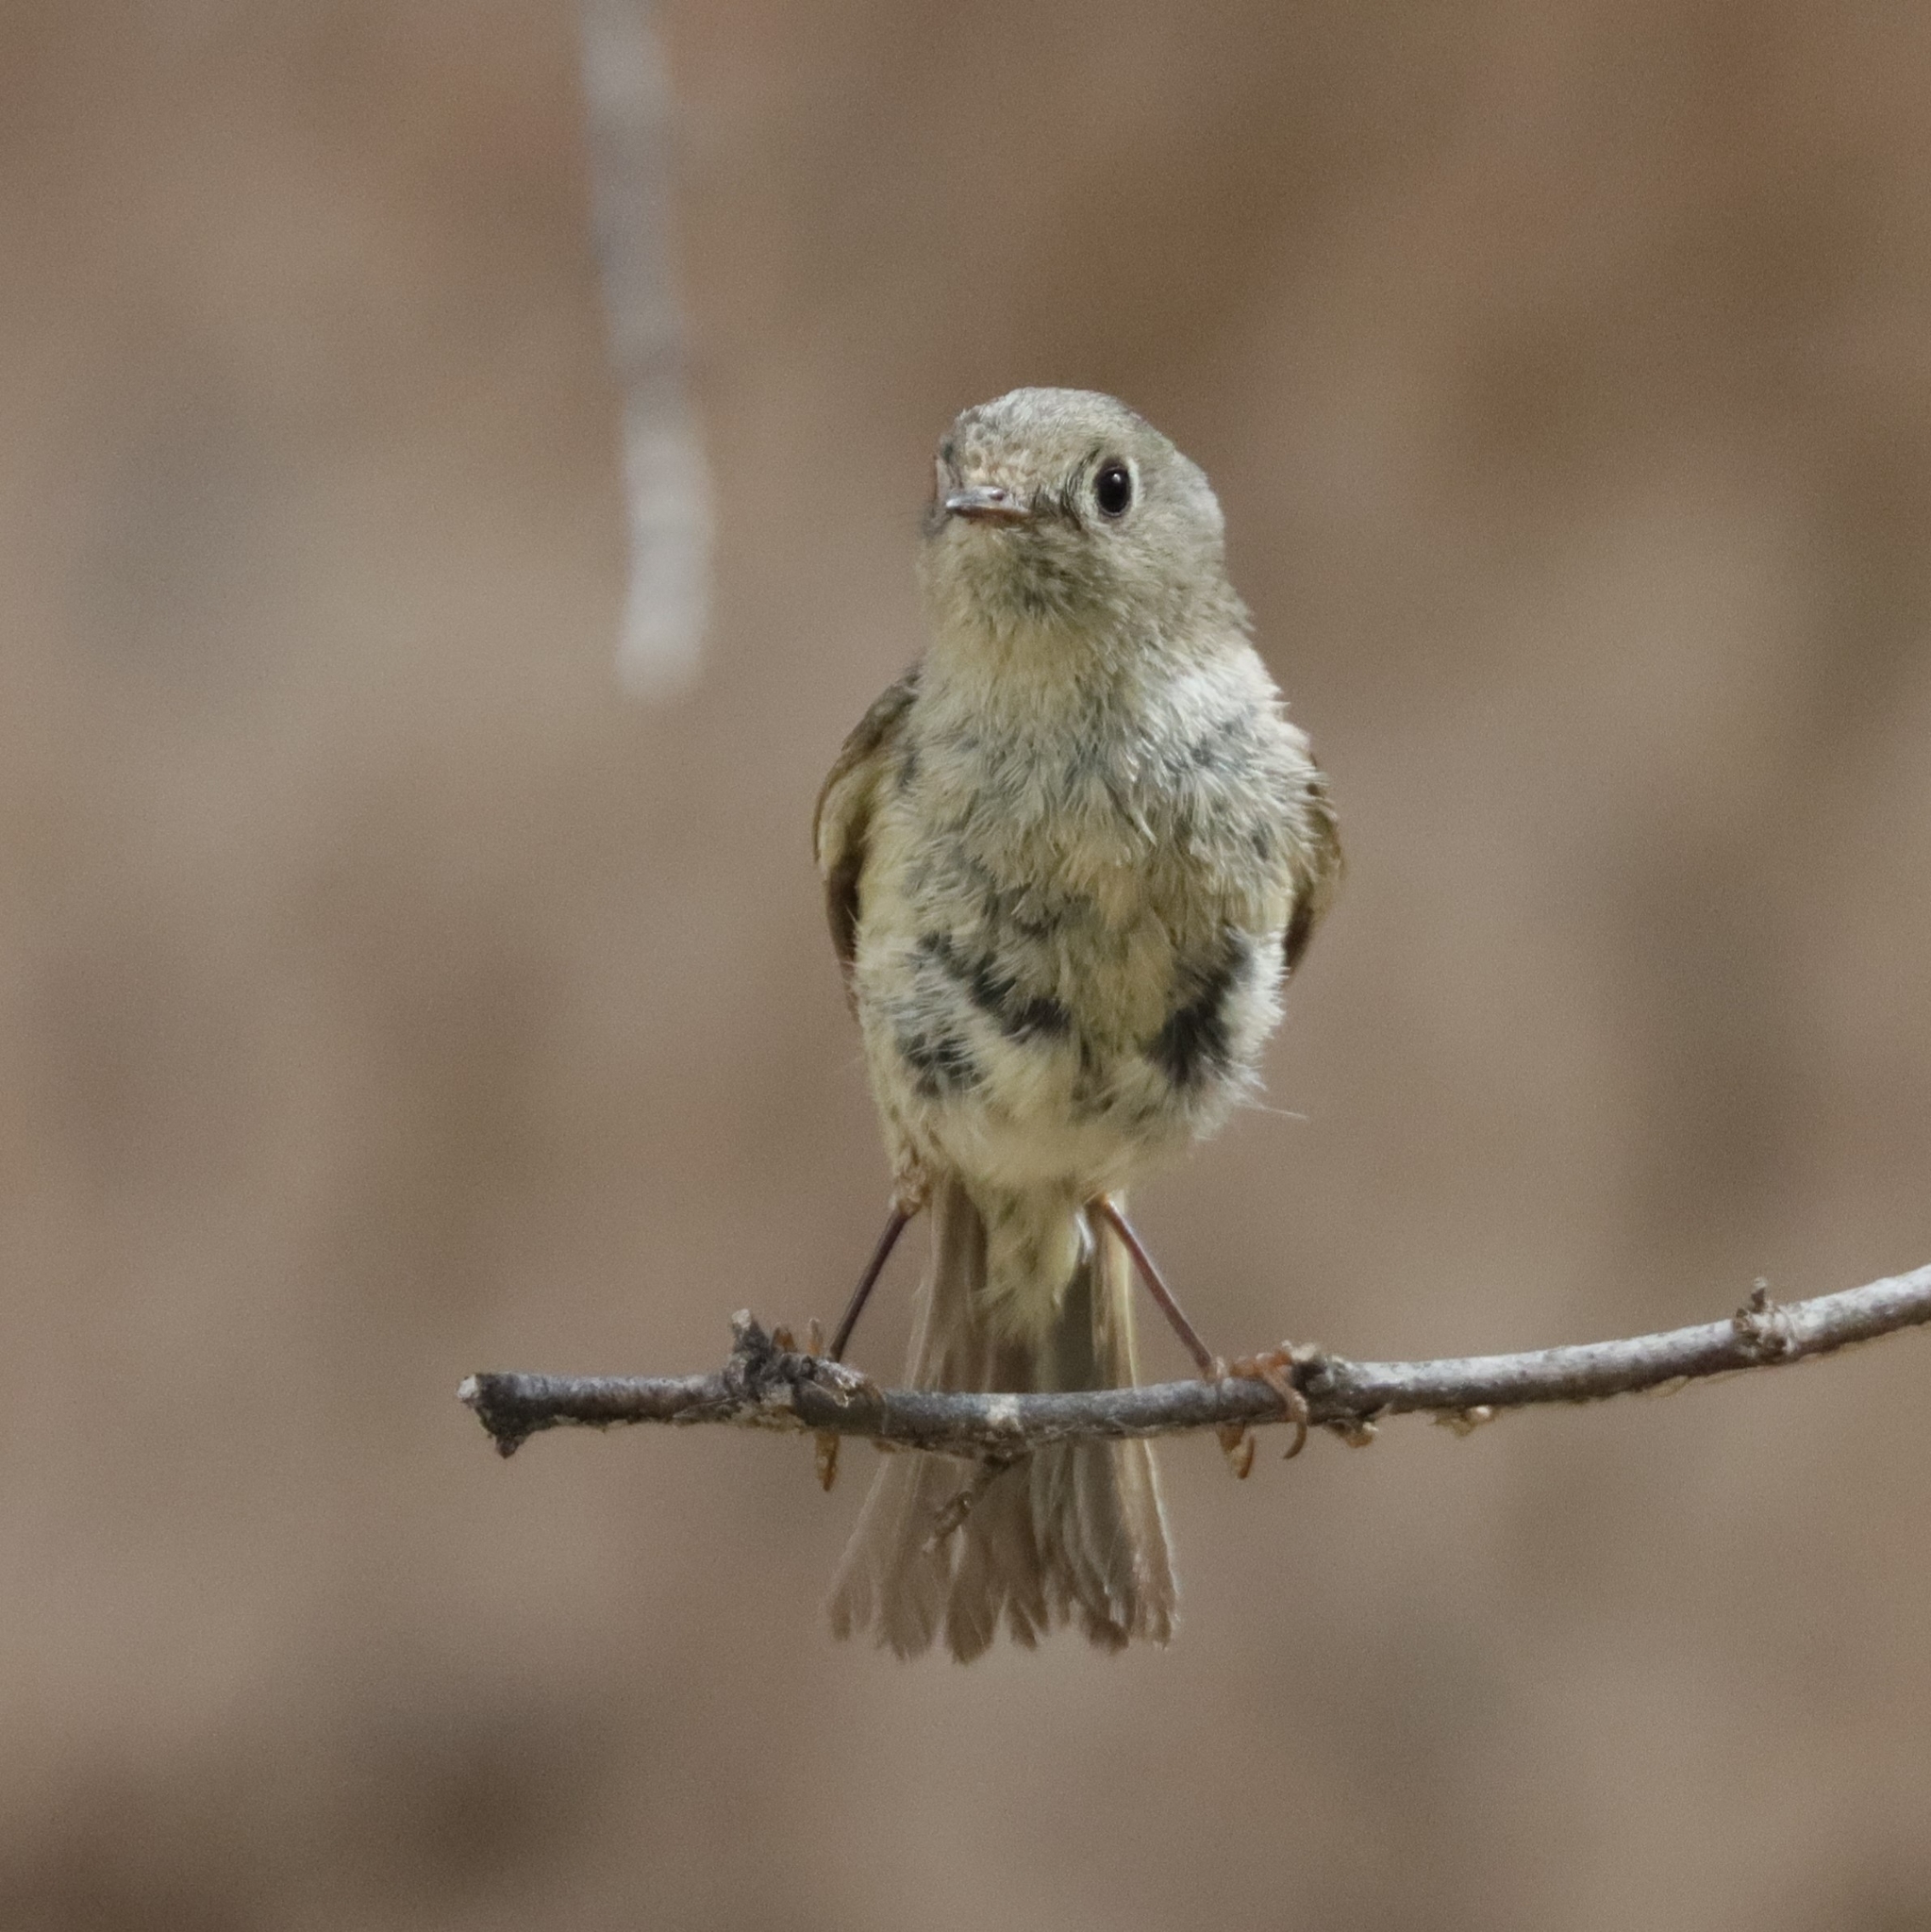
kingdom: Animalia
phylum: Chordata
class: Aves
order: Passeriformes
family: Regulidae
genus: Regulus
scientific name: Regulus calendula
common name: Ruby-crowned kinglet
